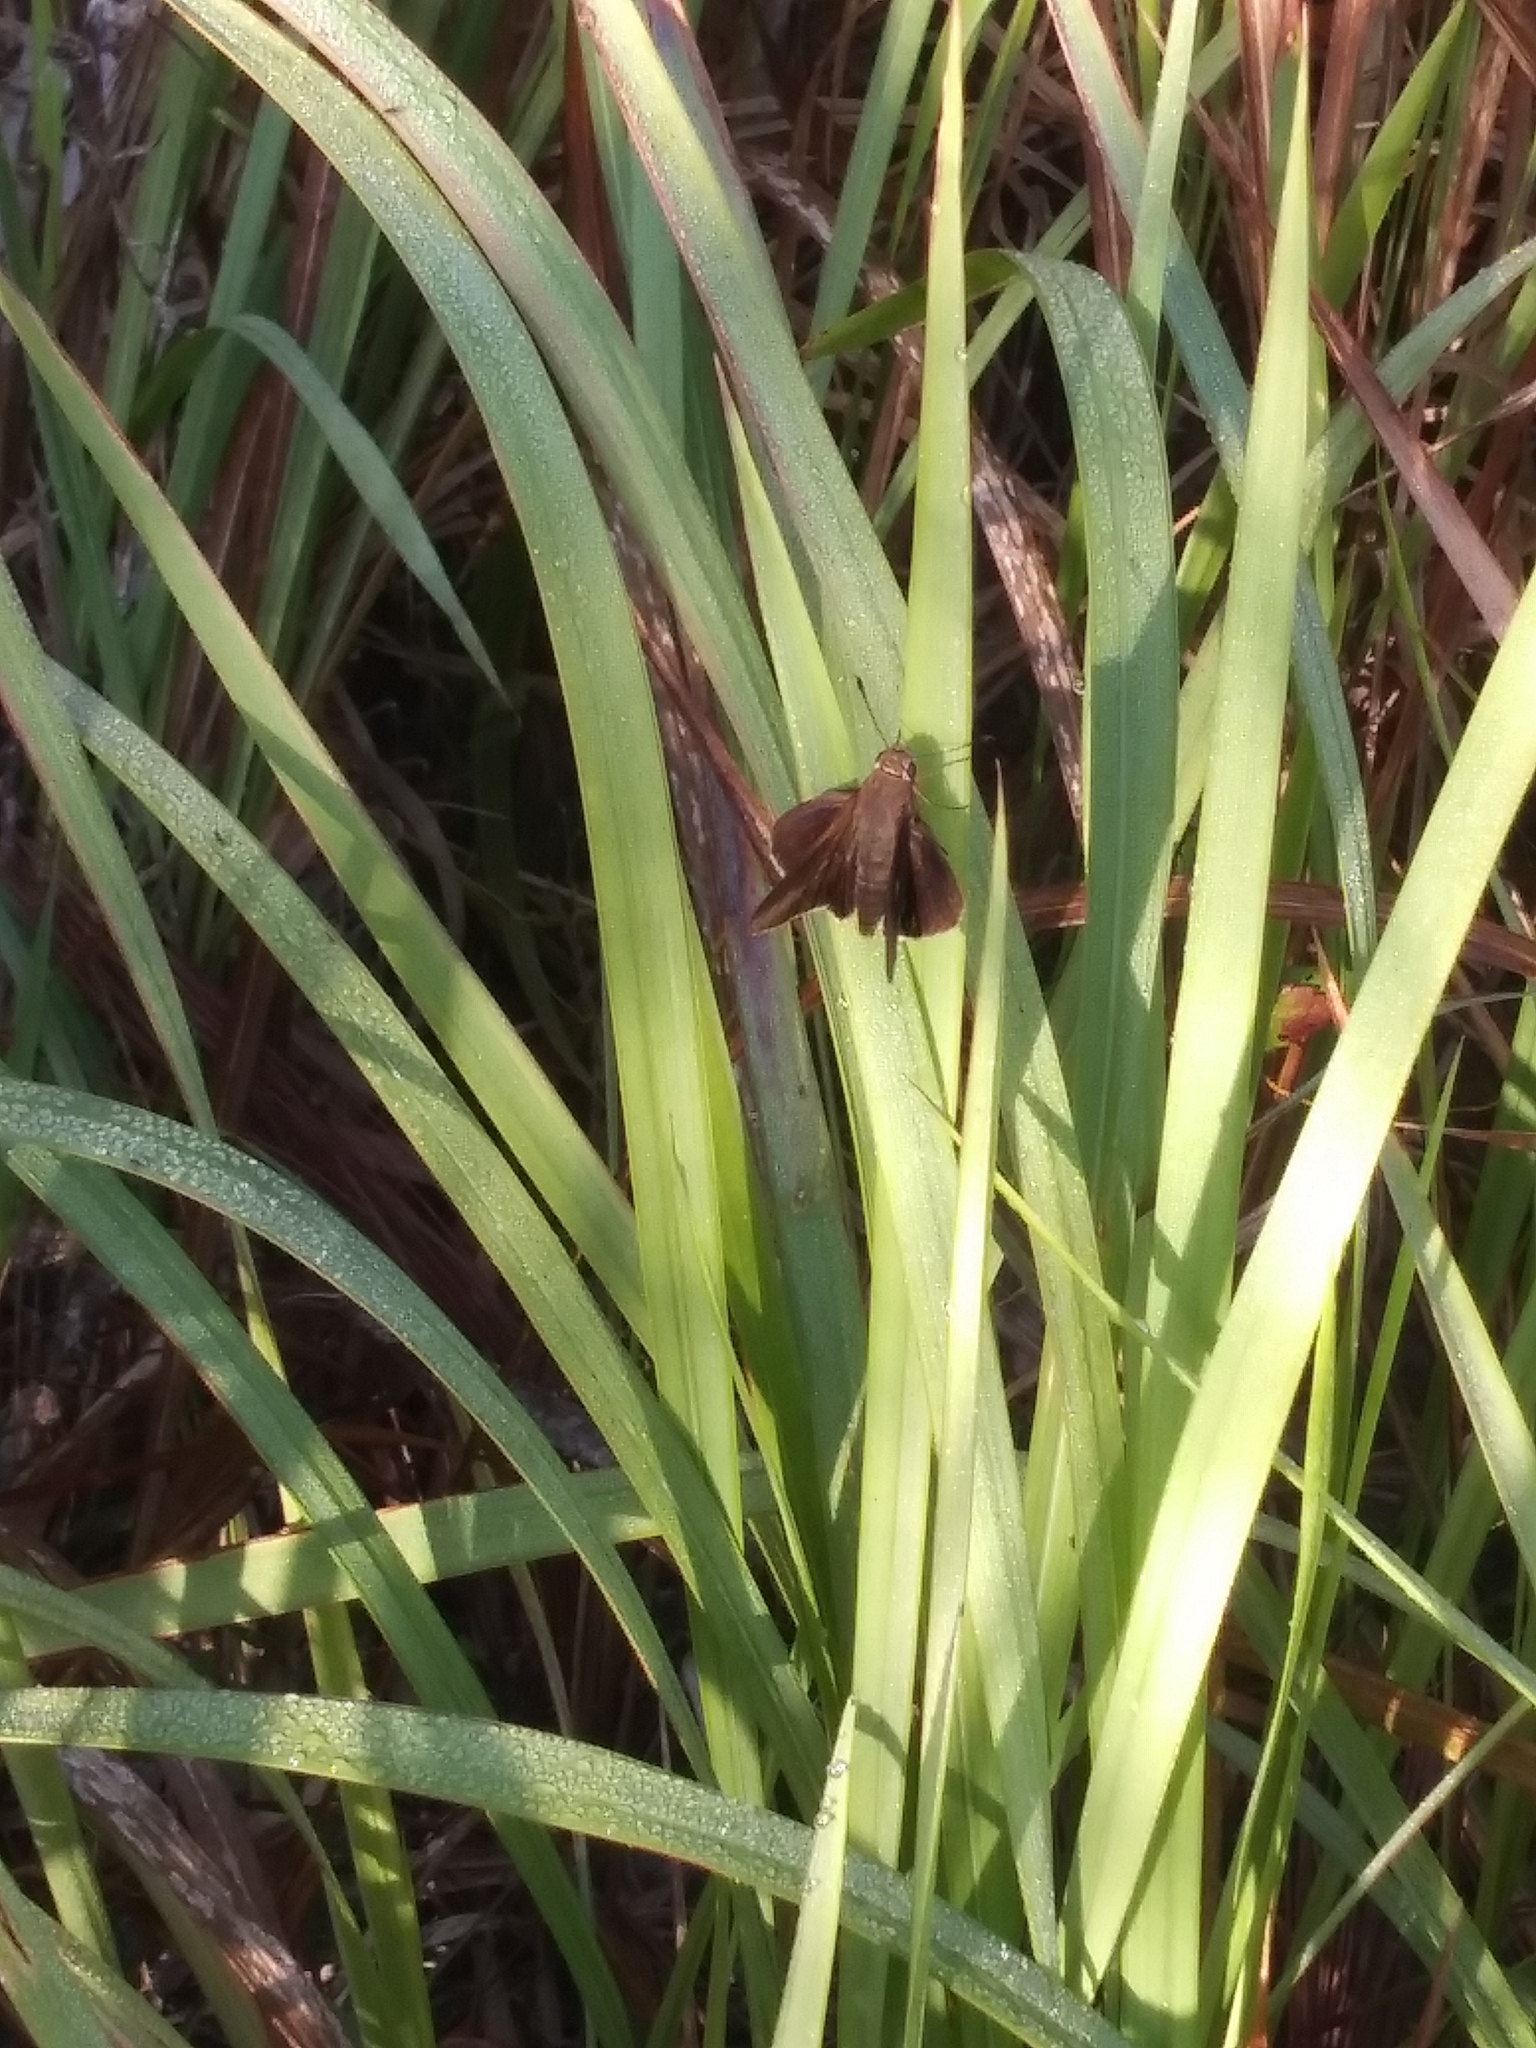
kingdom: Animalia
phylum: Arthropoda
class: Insecta
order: Lepidoptera
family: Hesperiidae
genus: Asbolis
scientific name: Asbolis capucinus
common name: Monk skipper
